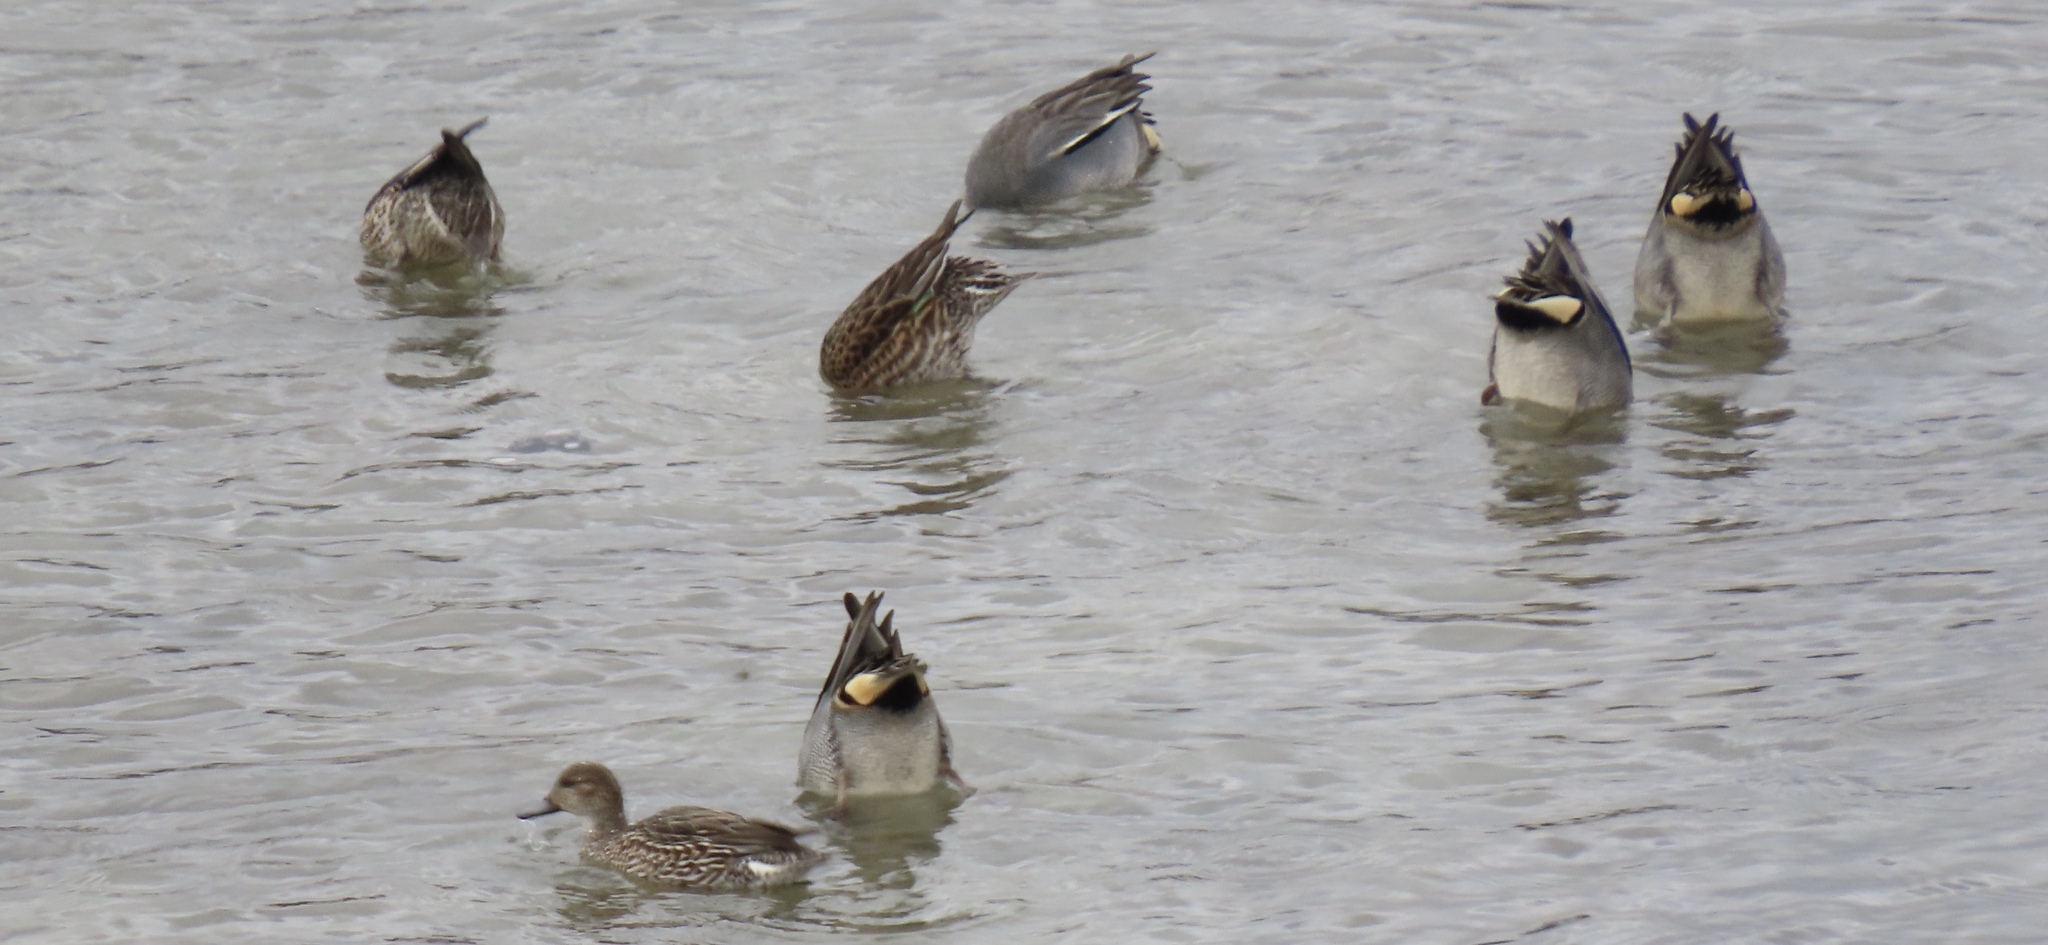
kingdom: Animalia
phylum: Chordata
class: Aves
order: Anseriformes
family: Anatidae
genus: Anas
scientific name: Anas crecca
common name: Eurasian teal
